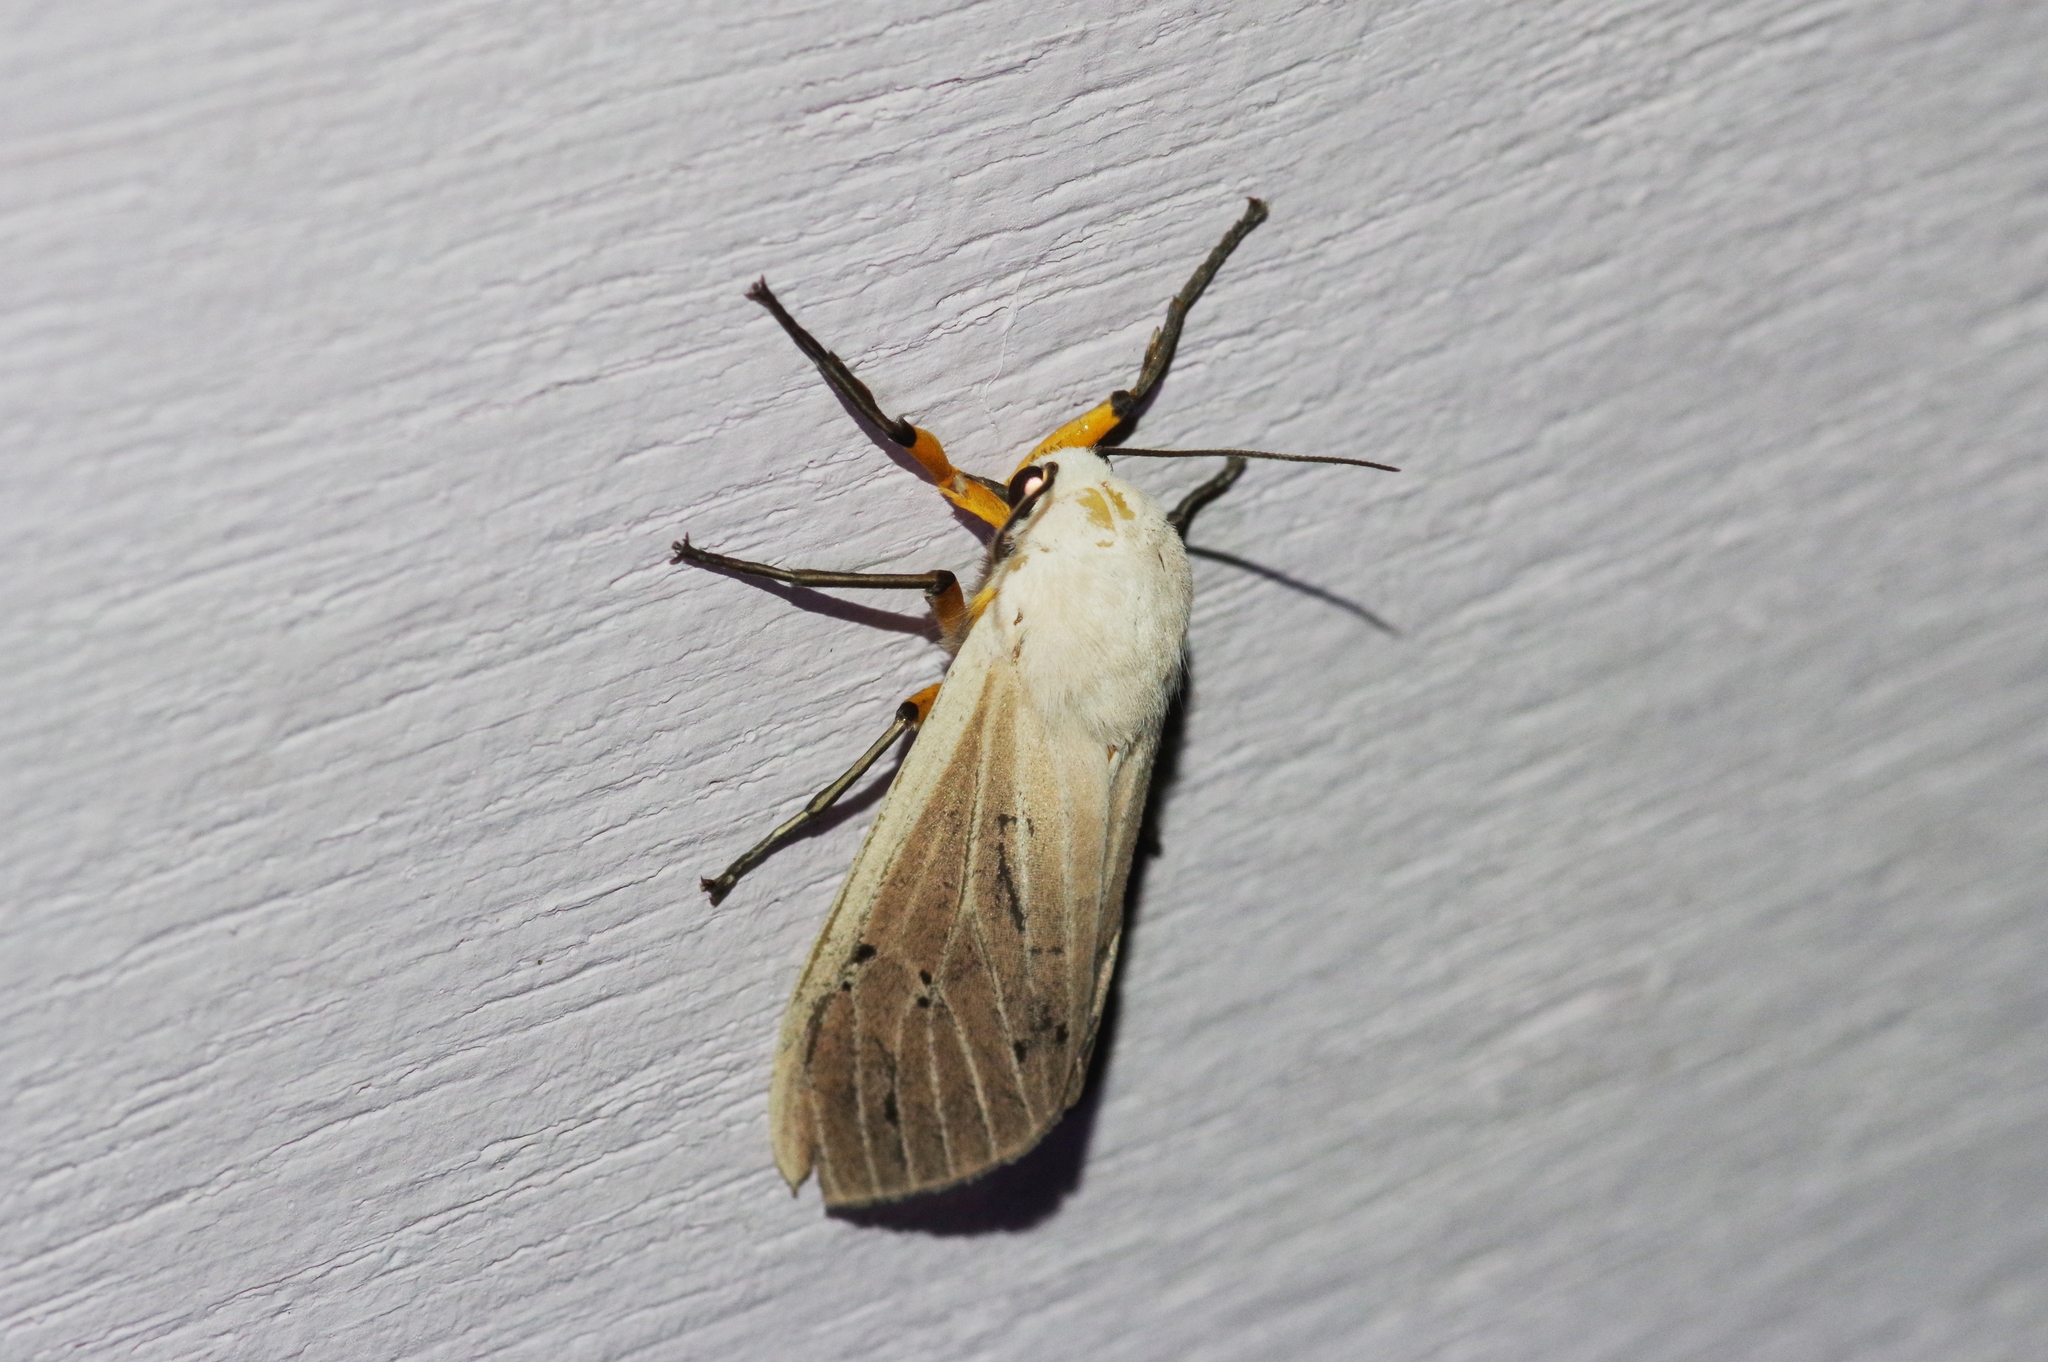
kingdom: Animalia
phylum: Arthropoda
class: Insecta
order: Lepidoptera
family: Erebidae
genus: Creatonotos
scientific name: Creatonotos transiens
